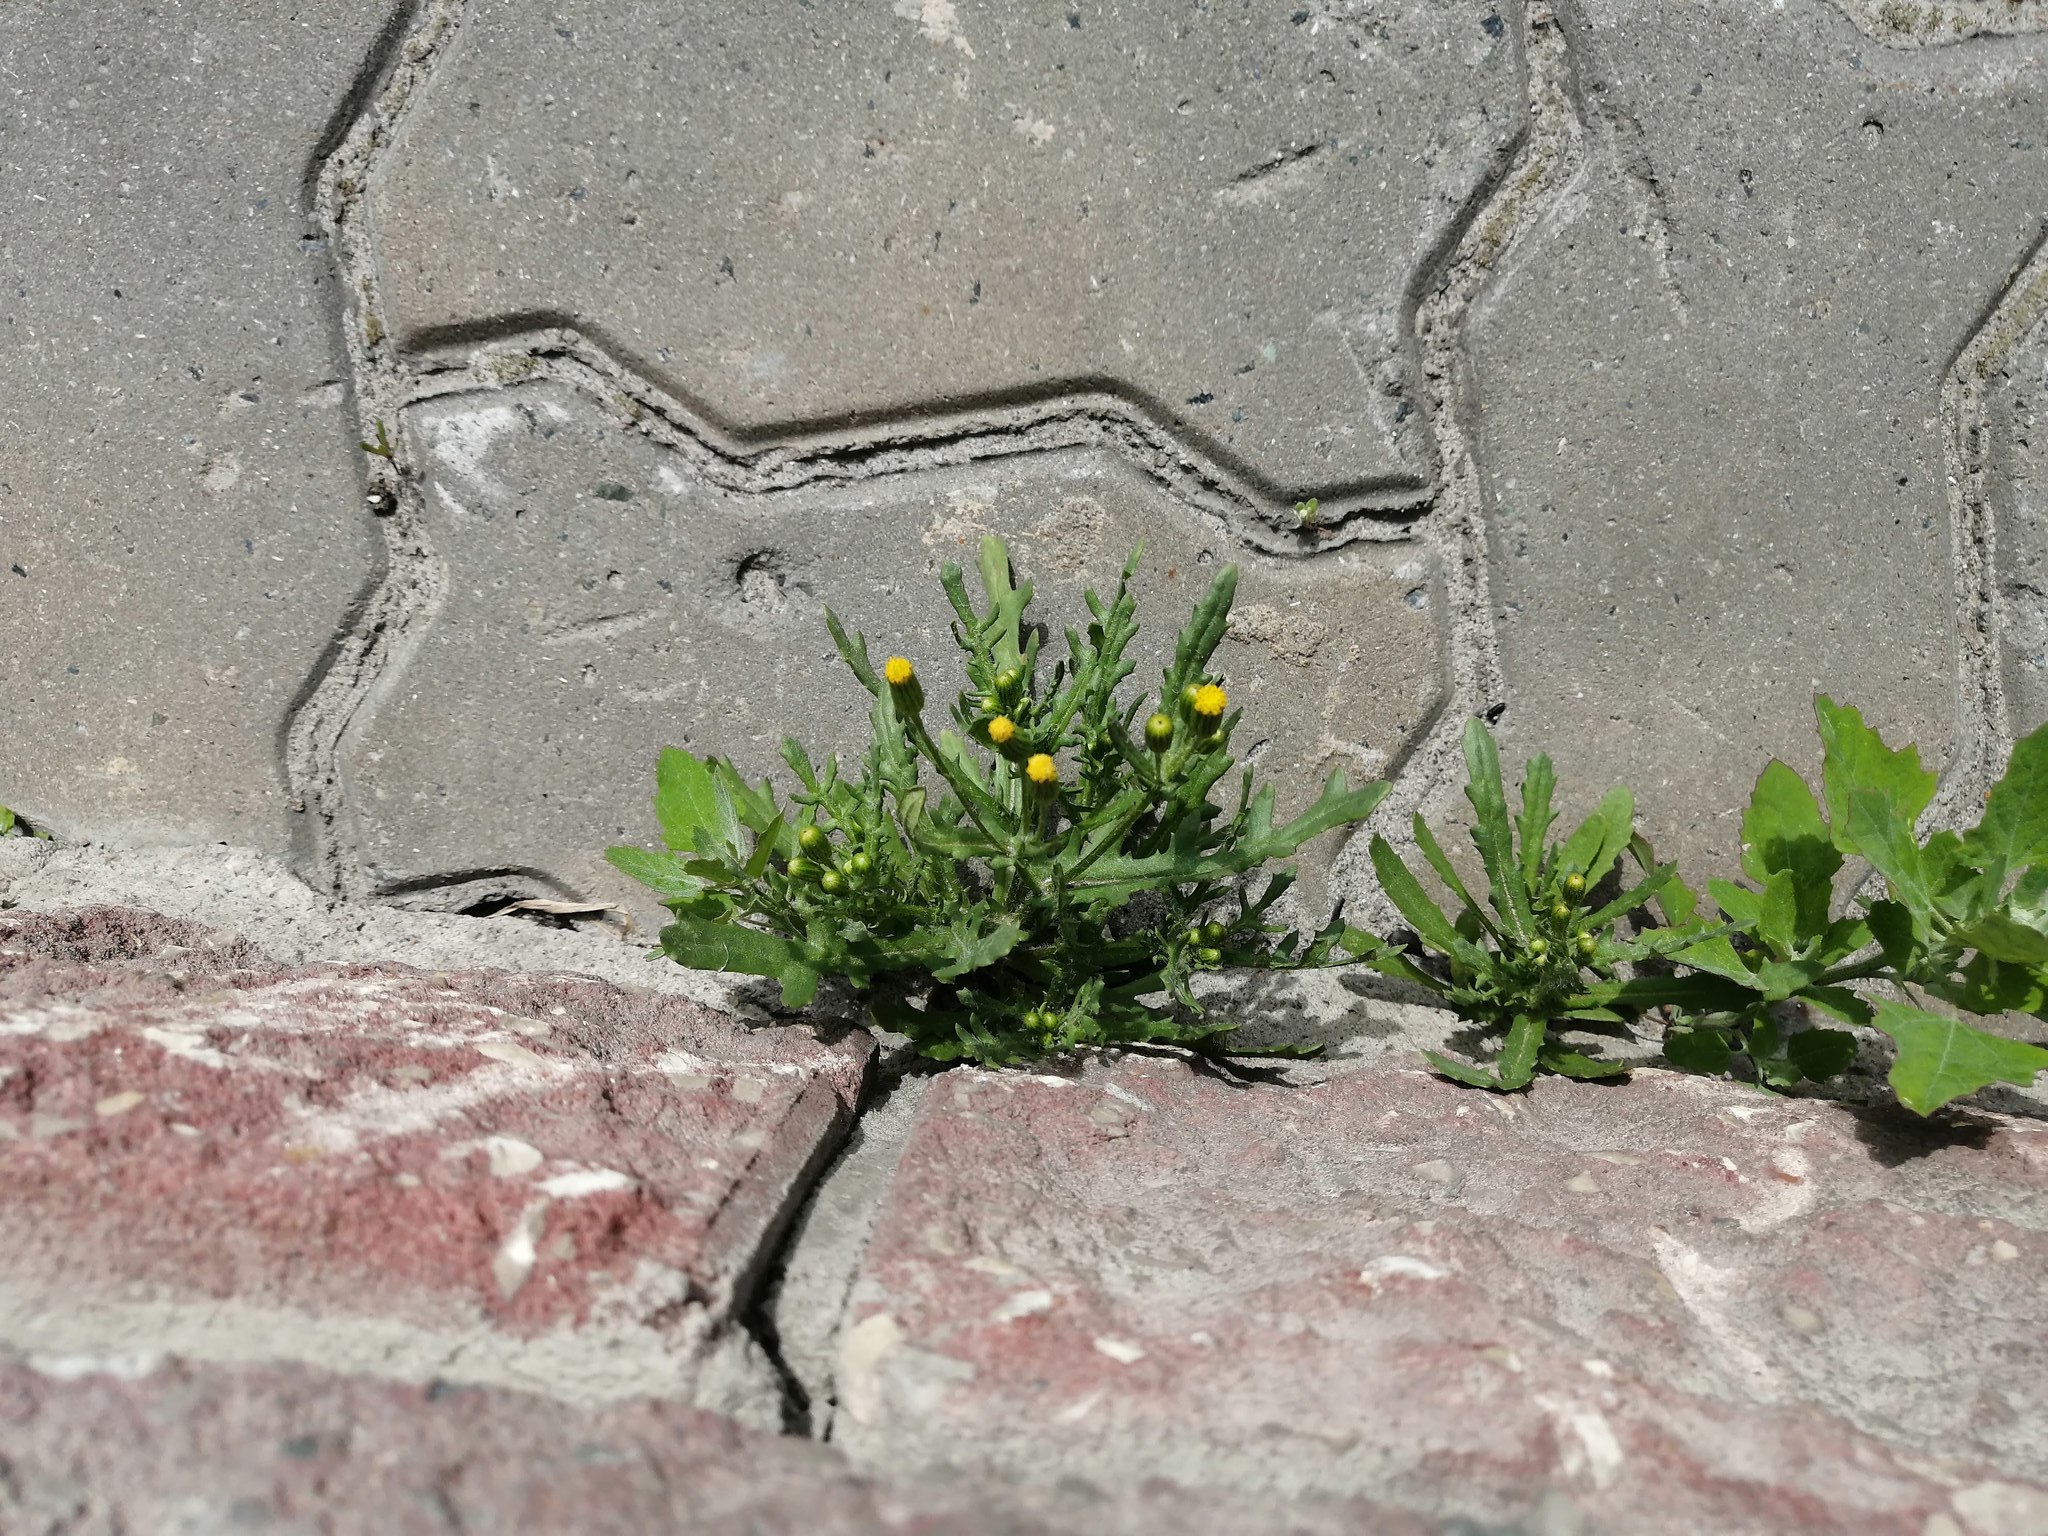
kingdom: Plantae
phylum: Tracheophyta
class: Magnoliopsida
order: Asterales
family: Asteraceae
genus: Senecio
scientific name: Senecio dubitabilis
